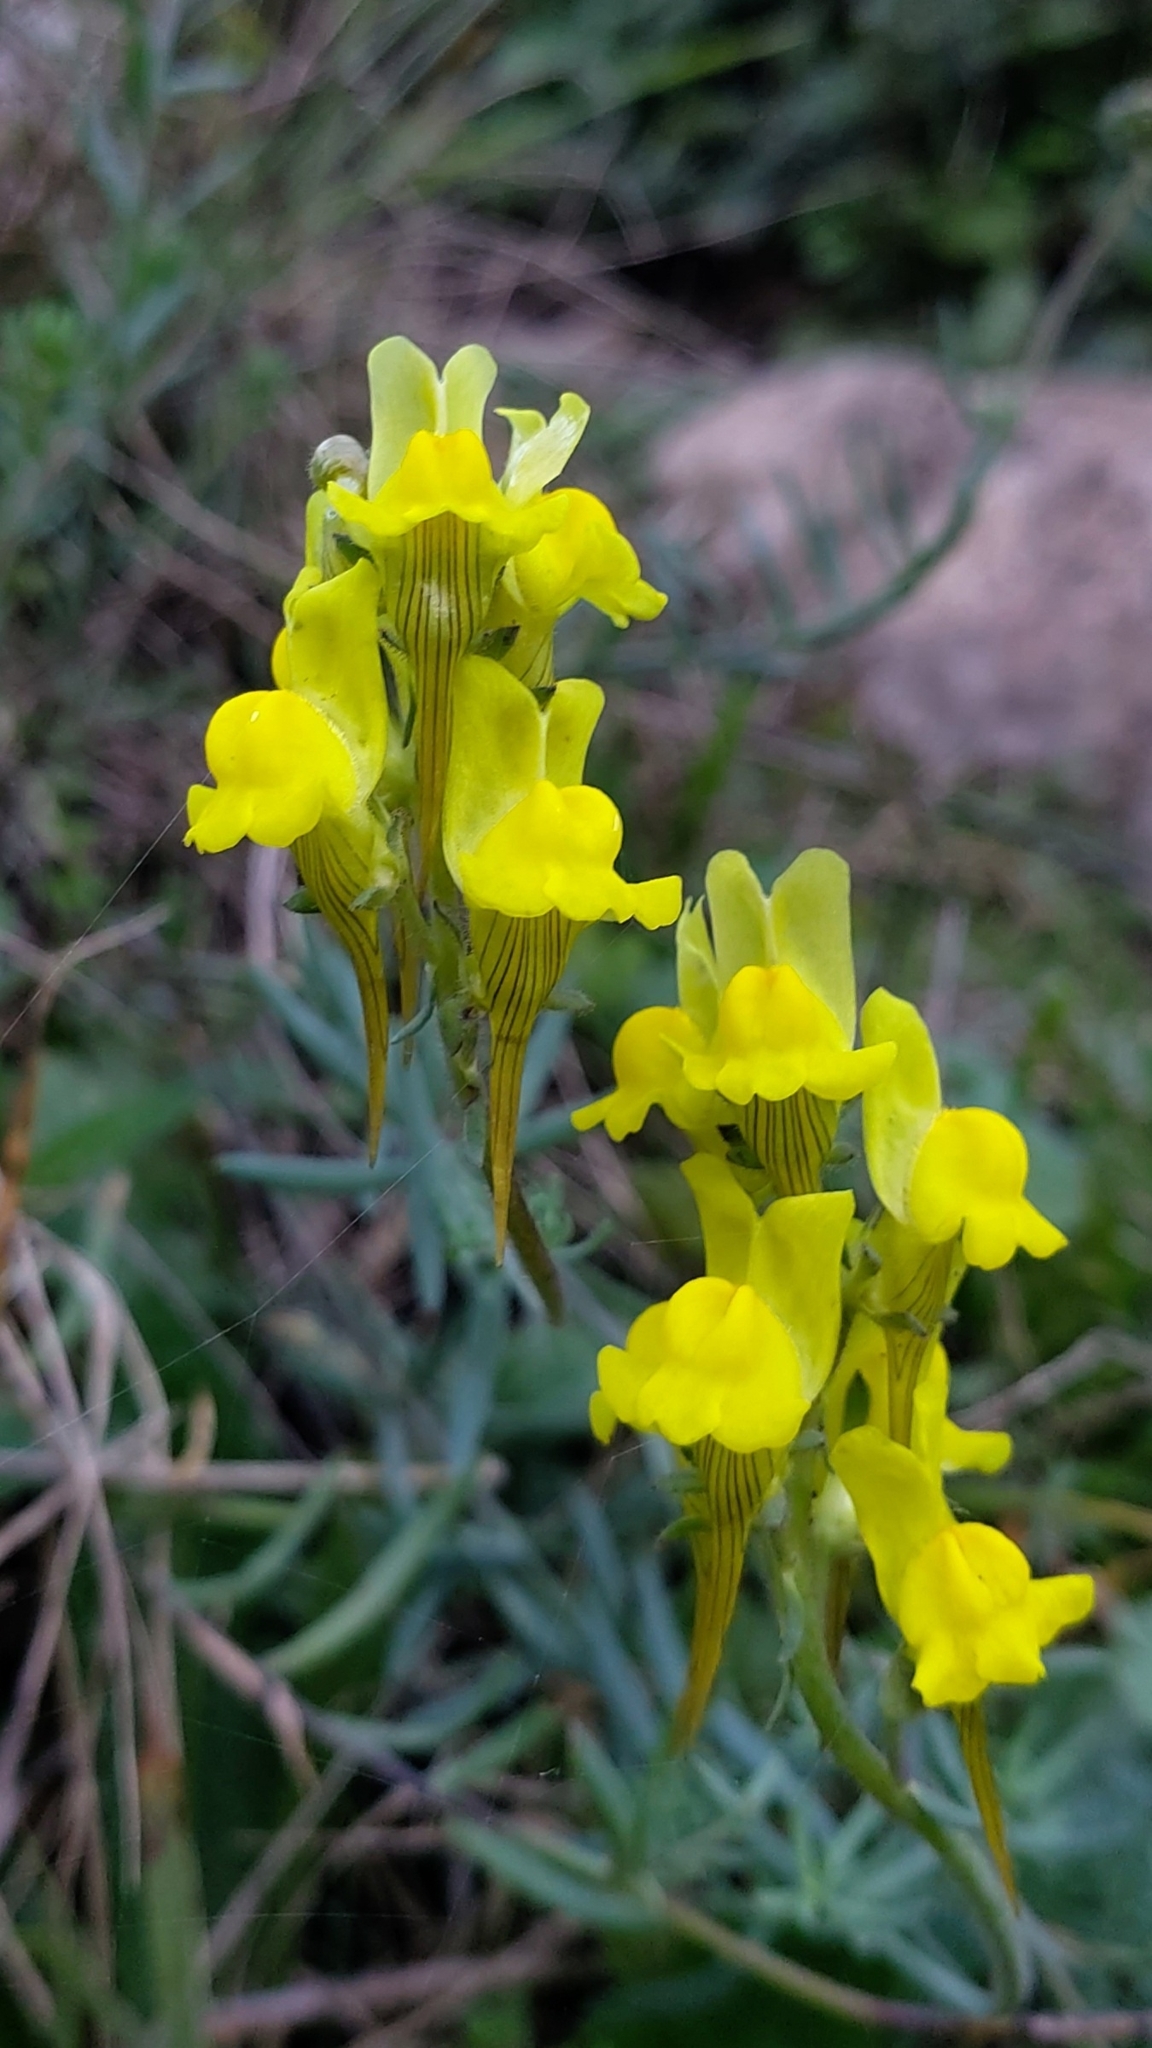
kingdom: Plantae
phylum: Tracheophyta
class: Magnoliopsida
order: Lamiales
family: Plantaginaceae
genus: Linaria
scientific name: Linaria supina
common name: Prostrate toadflax
